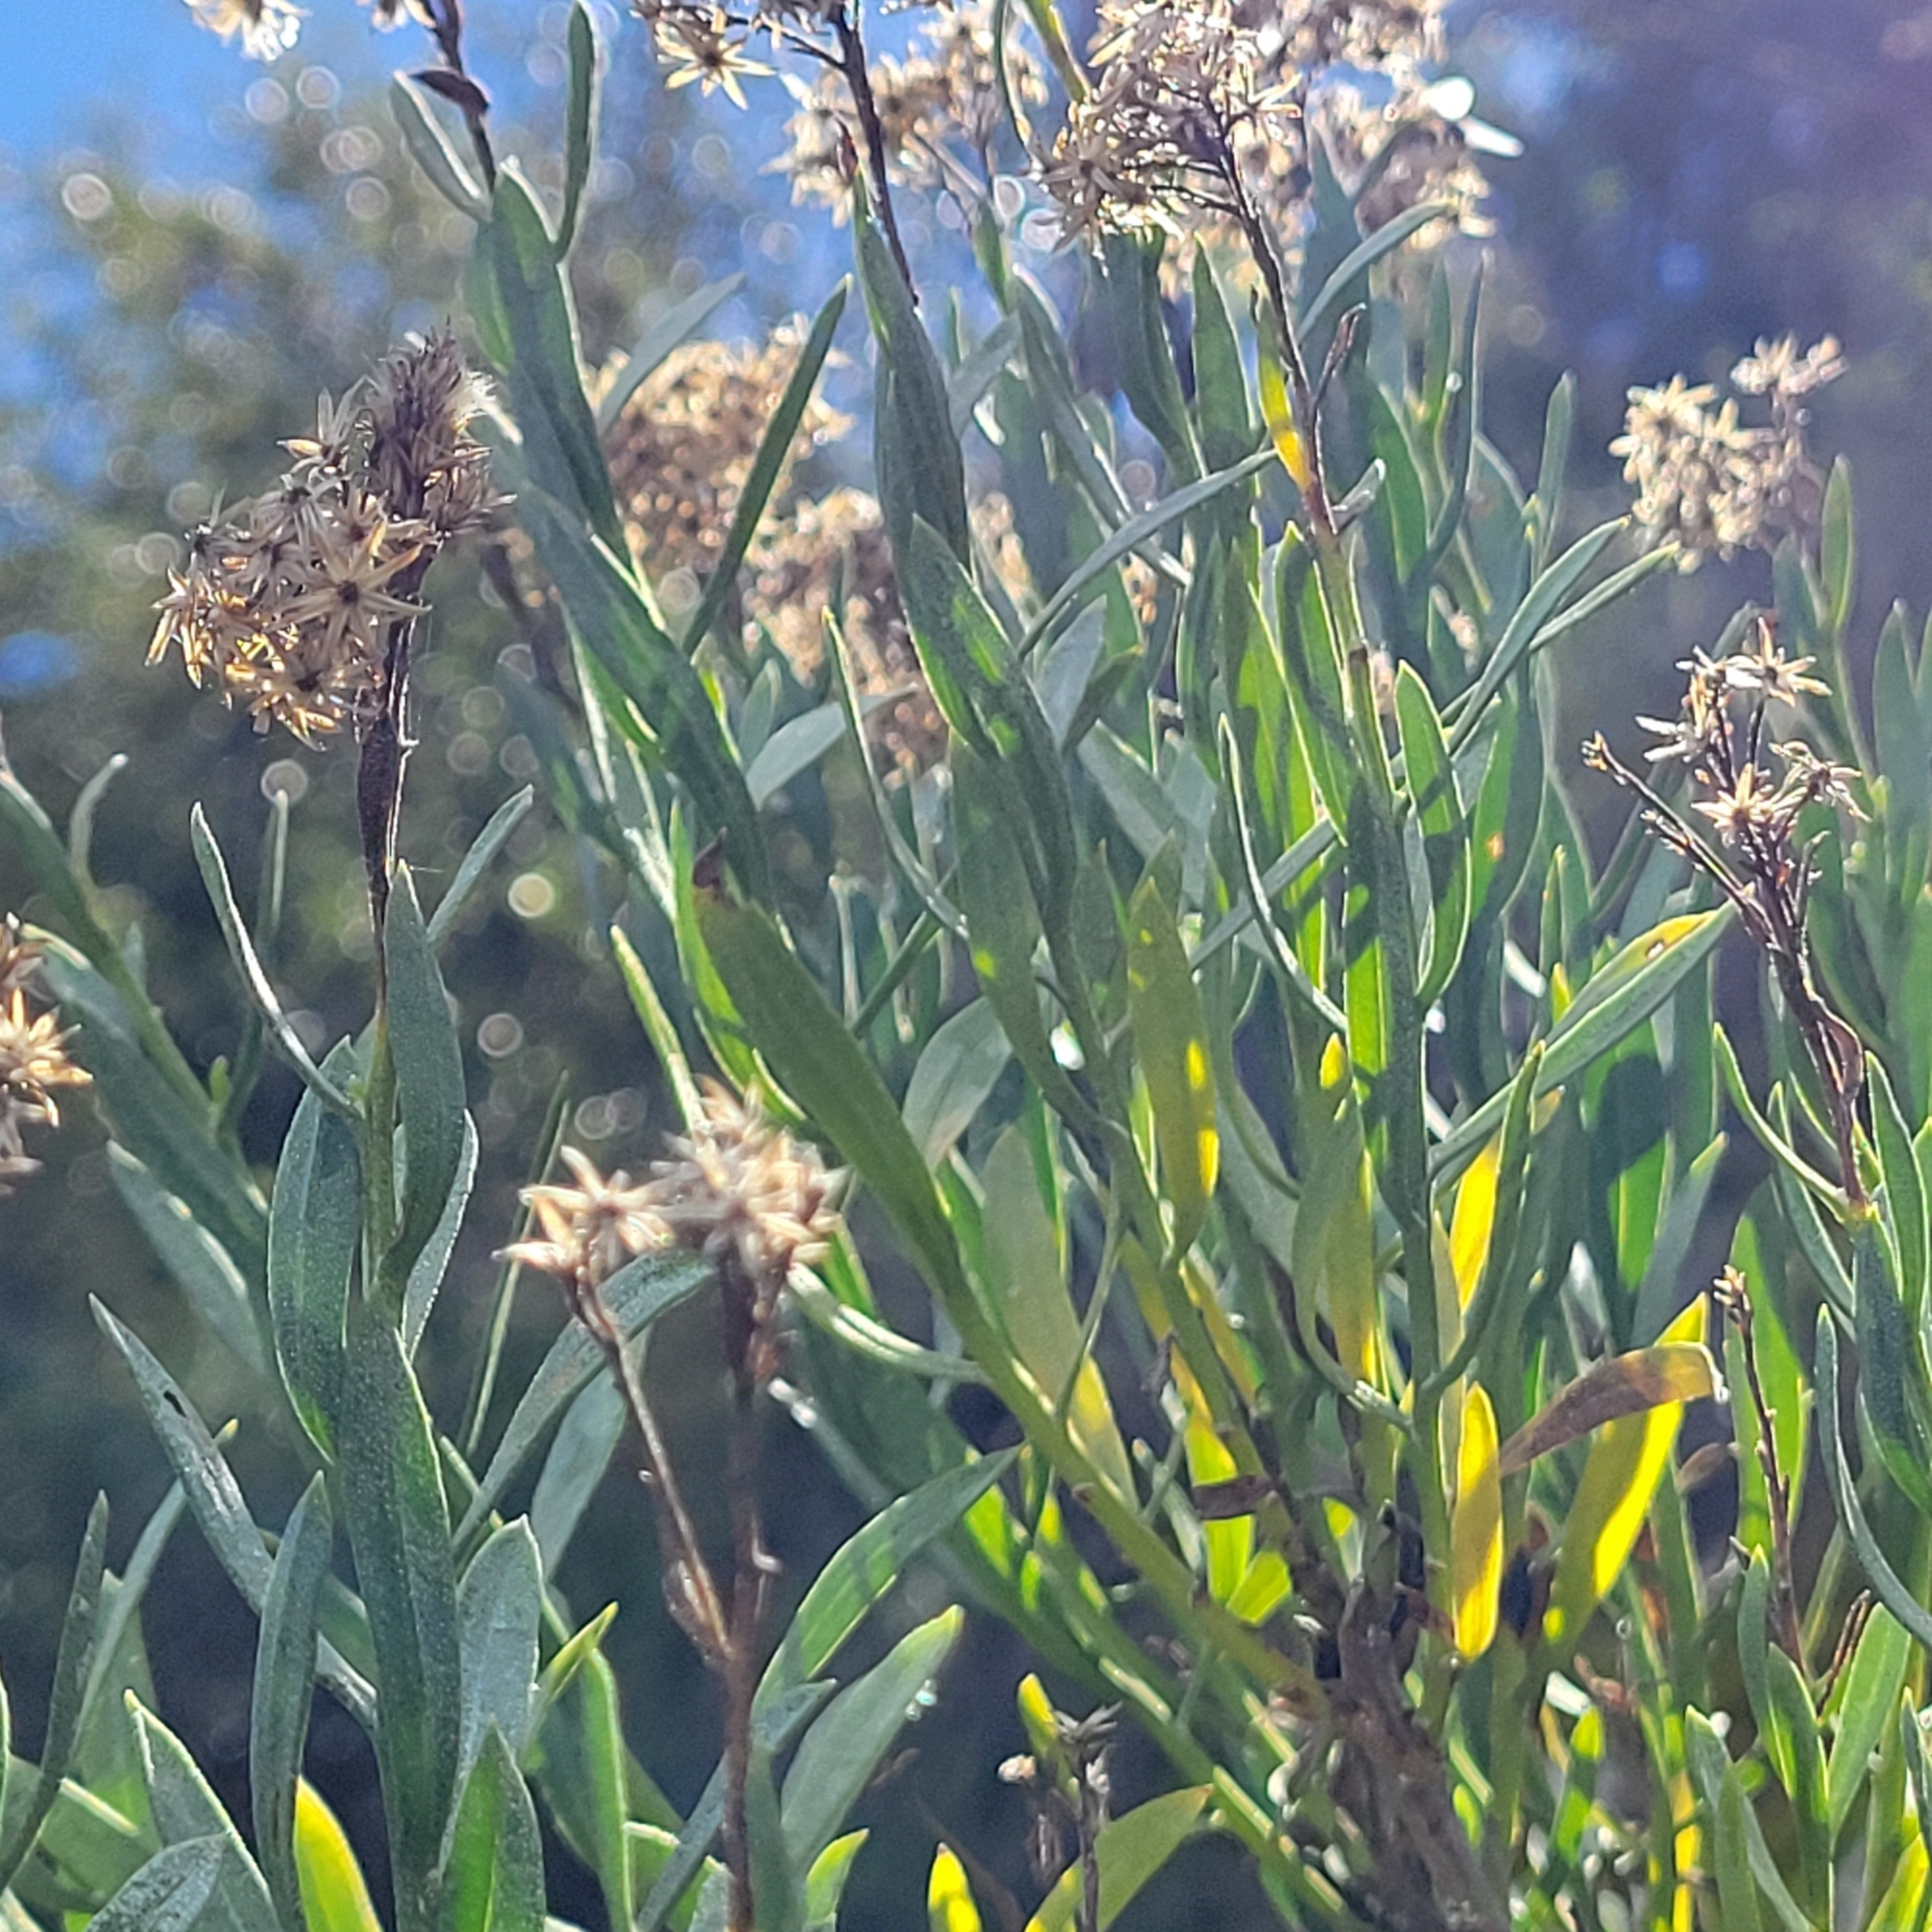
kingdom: Plantae
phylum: Tracheophyta
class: Magnoliopsida
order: Asterales
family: Asteraceae
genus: Ericameria
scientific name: Ericameria parishii
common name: Parish's goldenbush
